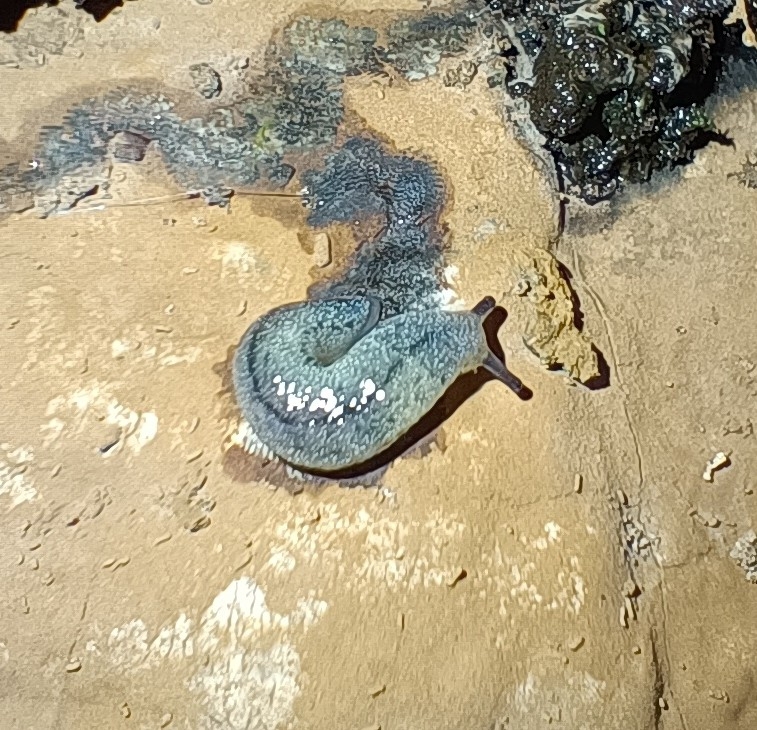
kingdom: Animalia
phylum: Mollusca
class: Gastropoda
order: Stylommatophora
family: Philomycidae
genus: Meghimatium
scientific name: Meghimatium bilineatum
